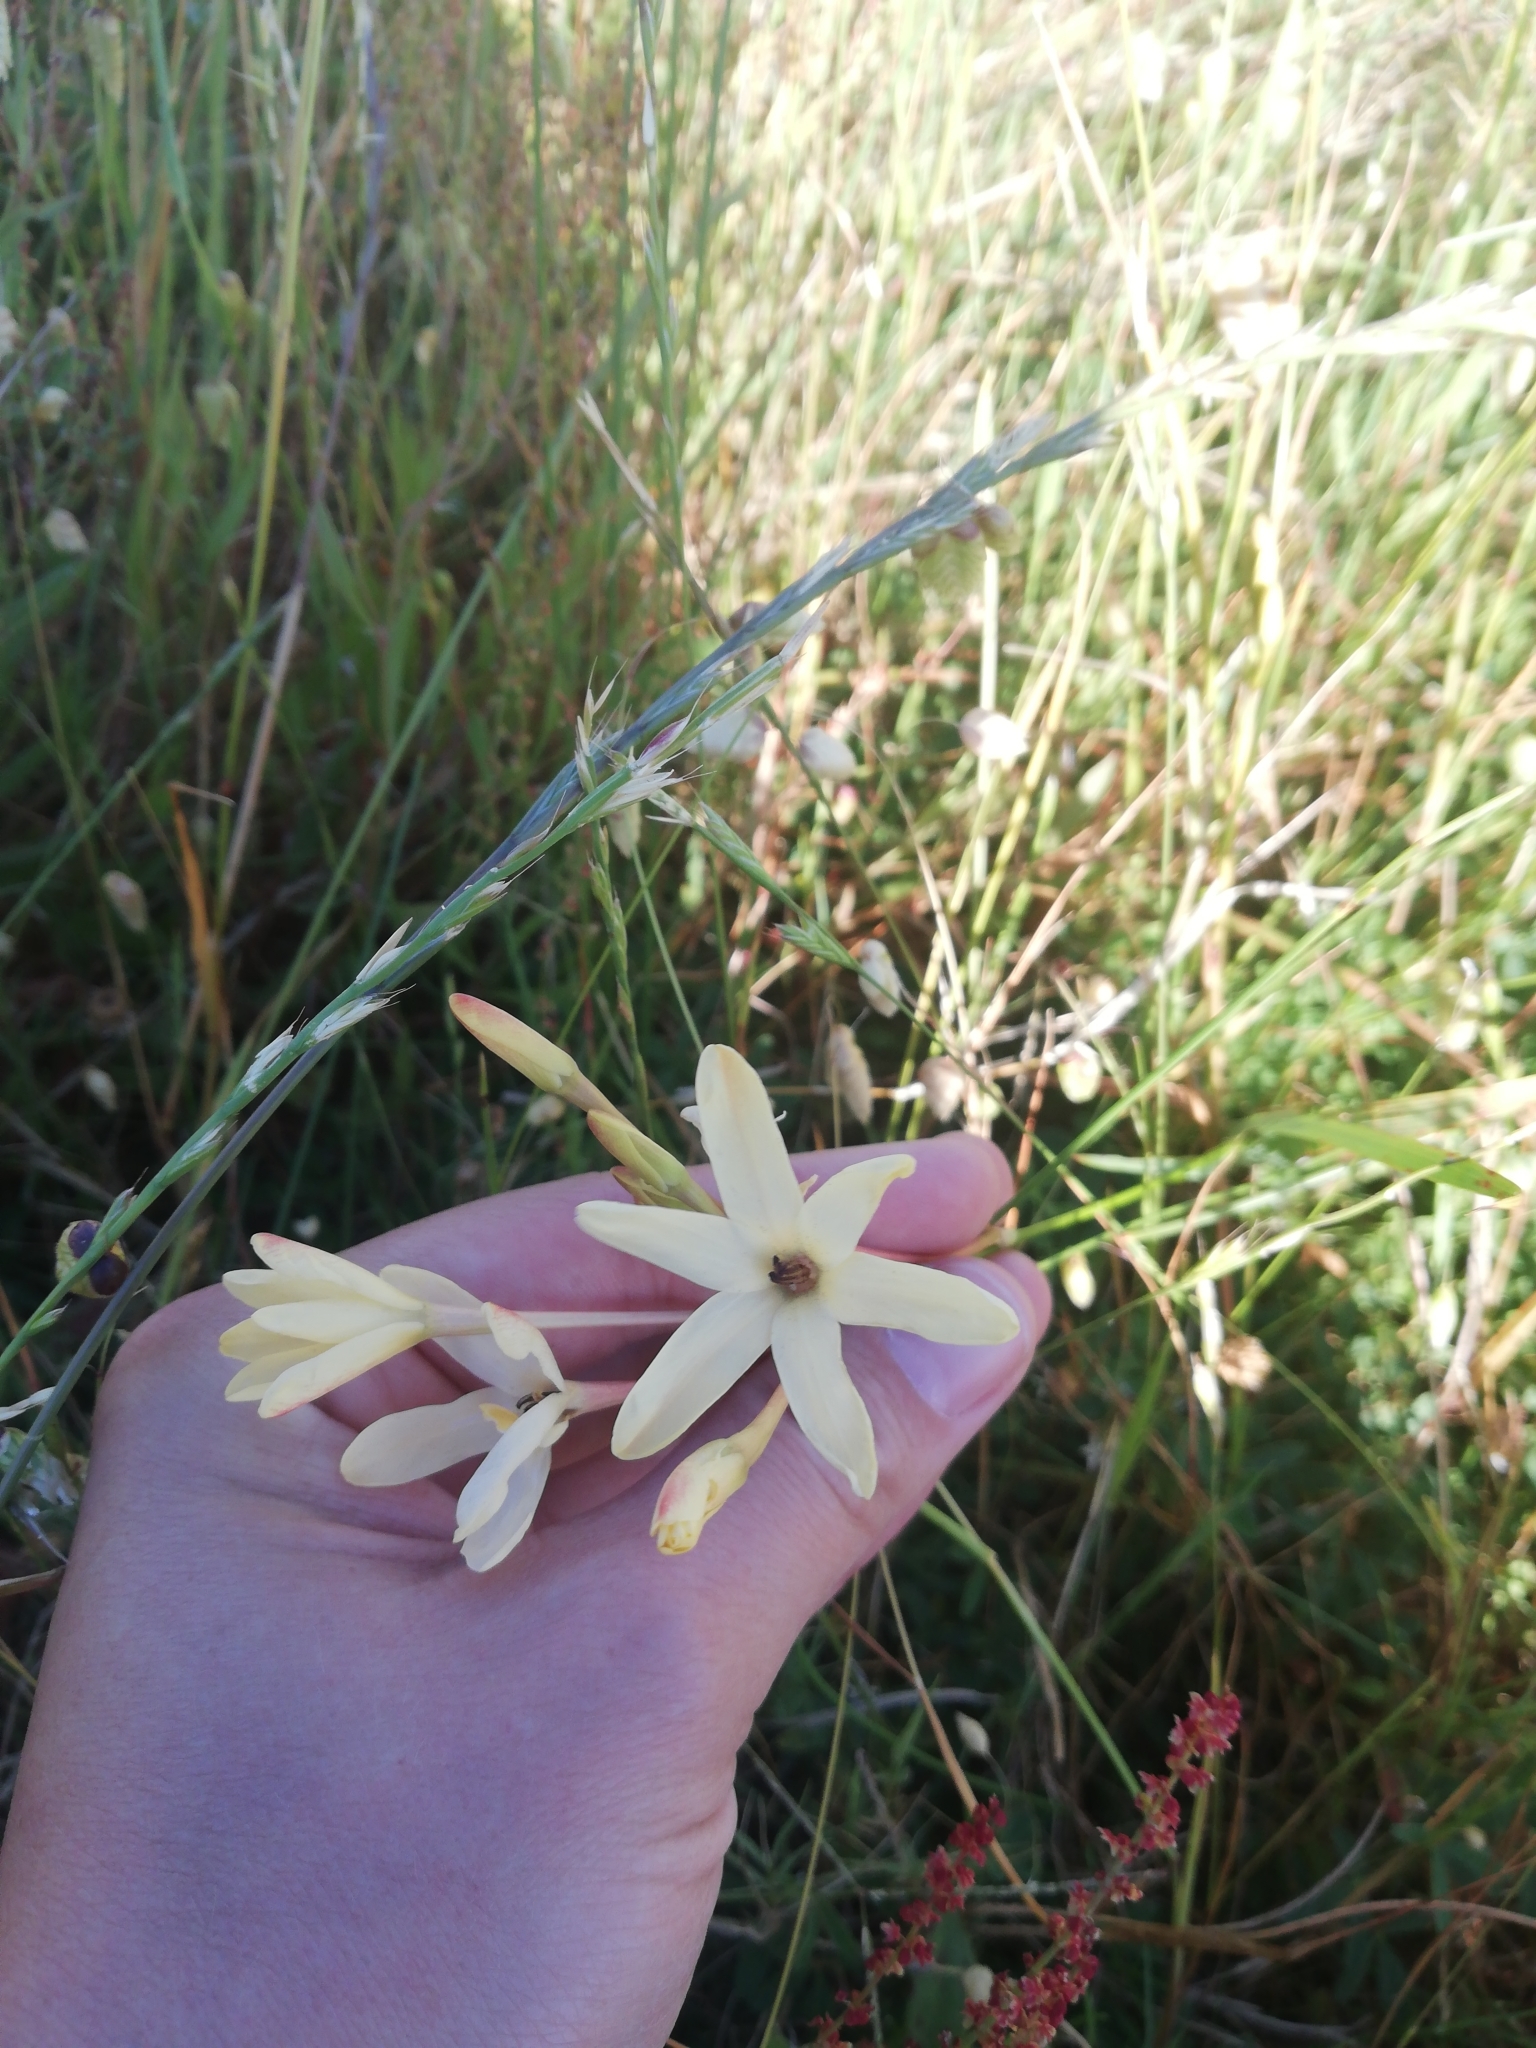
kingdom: Plantae
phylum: Tracheophyta
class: Liliopsida
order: Asparagales
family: Iridaceae
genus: Ixia
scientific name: Ixia paniculata
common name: Tubular corn-lily
